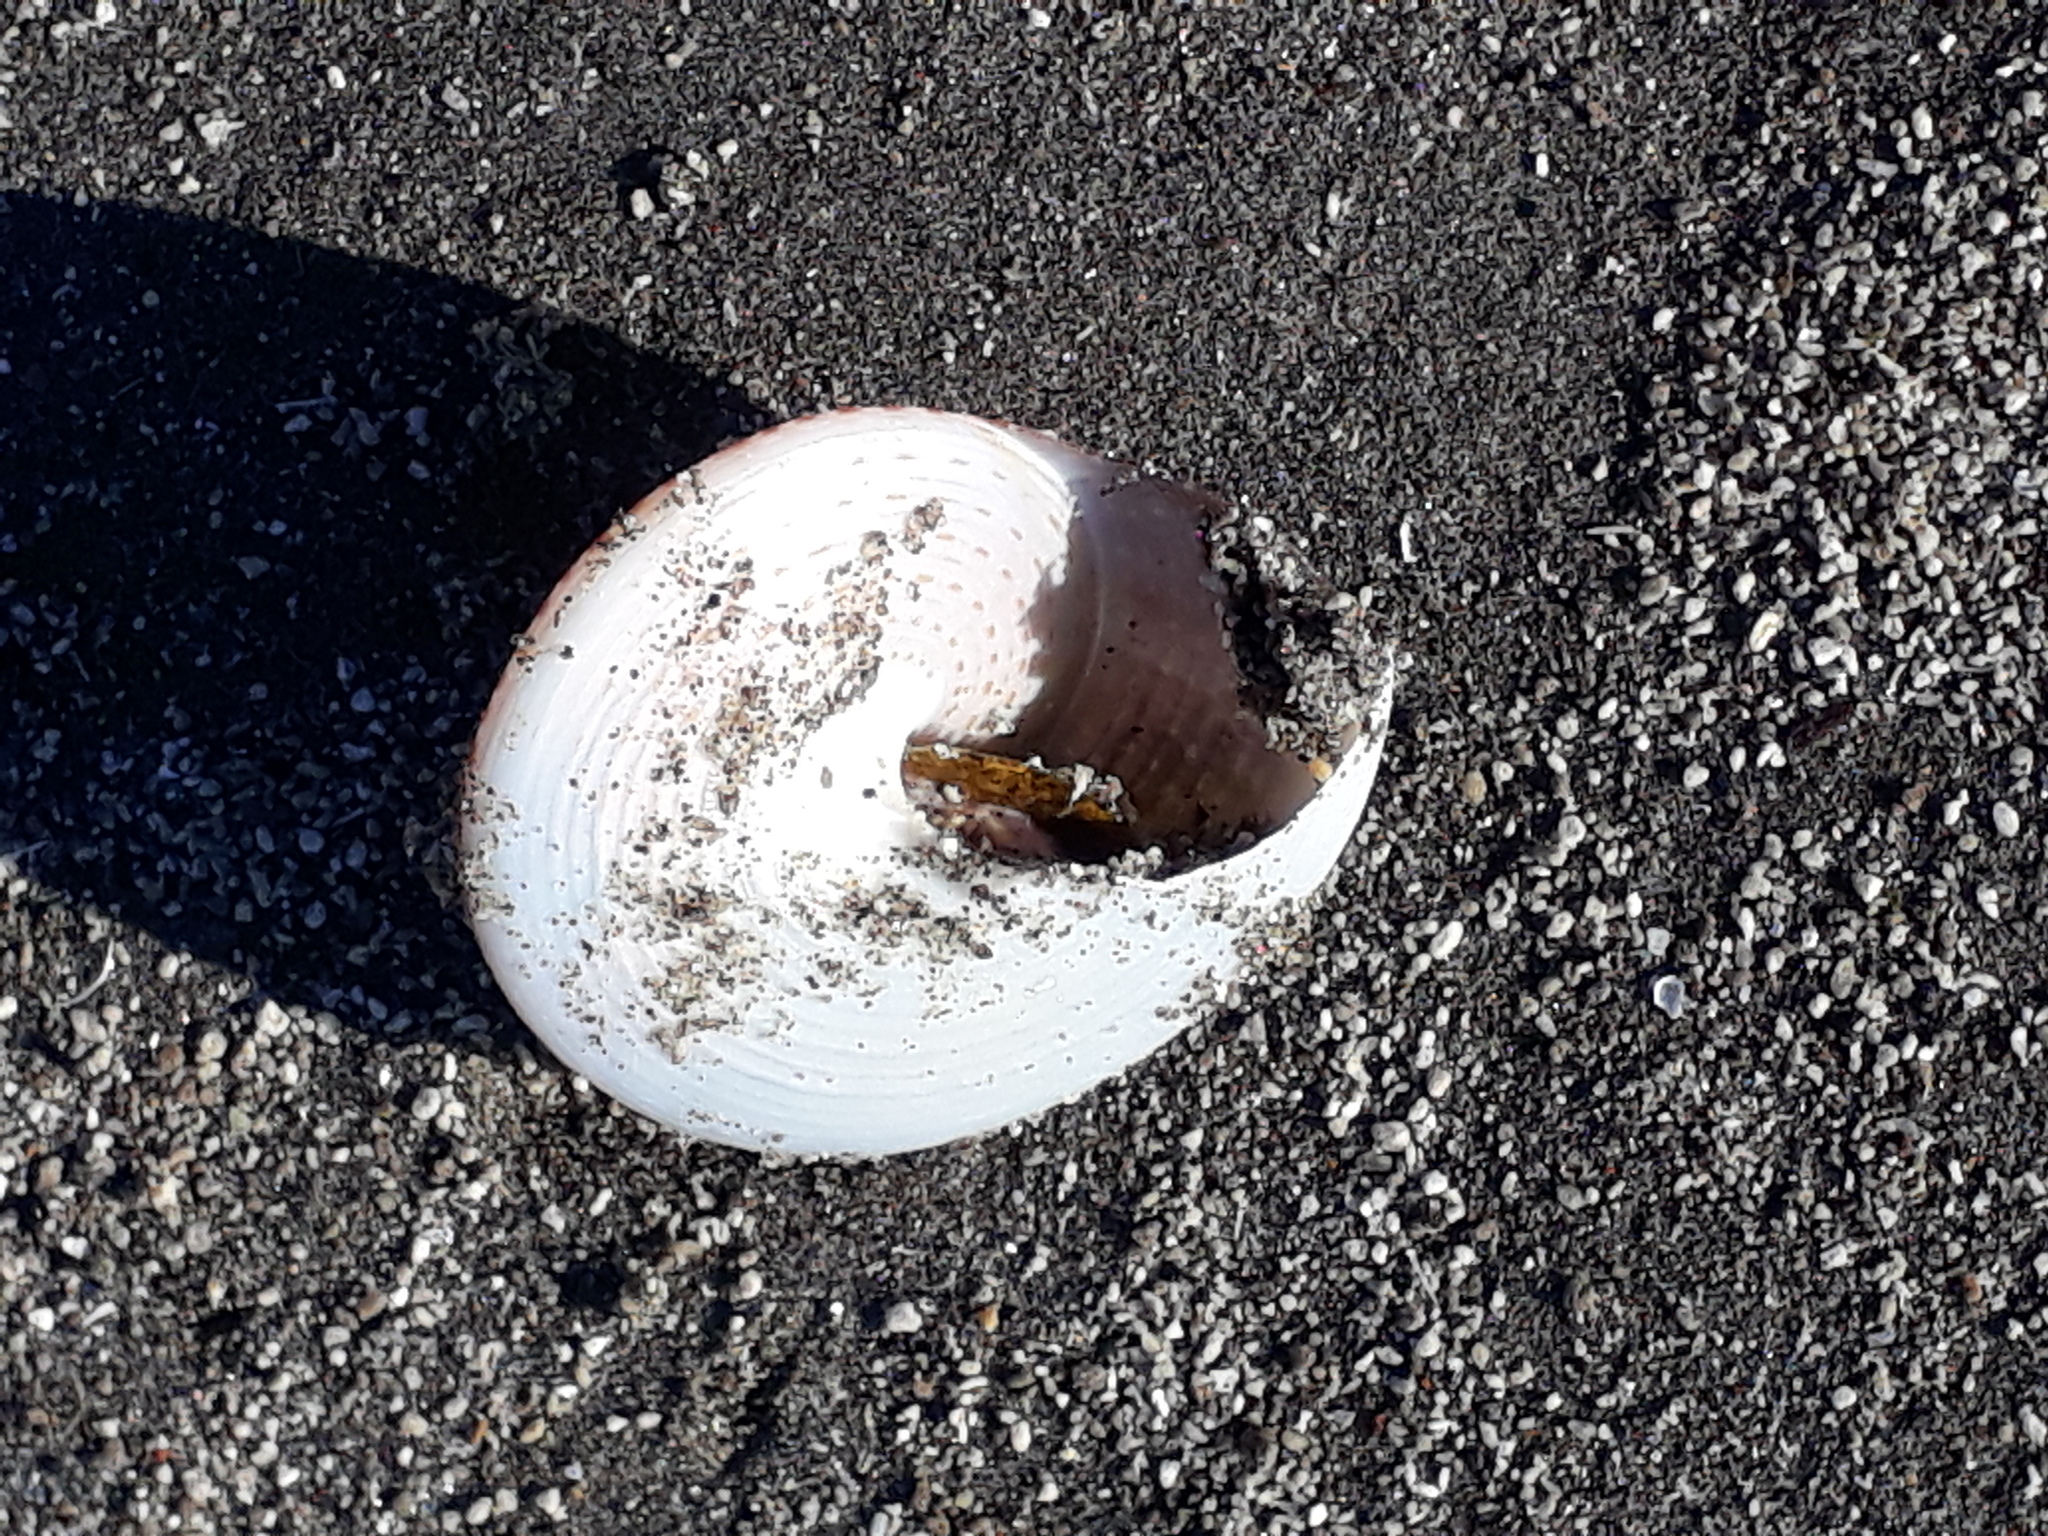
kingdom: Animalia
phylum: Mollusca
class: Gastropoda
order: Trochida
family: Calliostomatidae
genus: Maurea
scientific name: Maurea selecta
